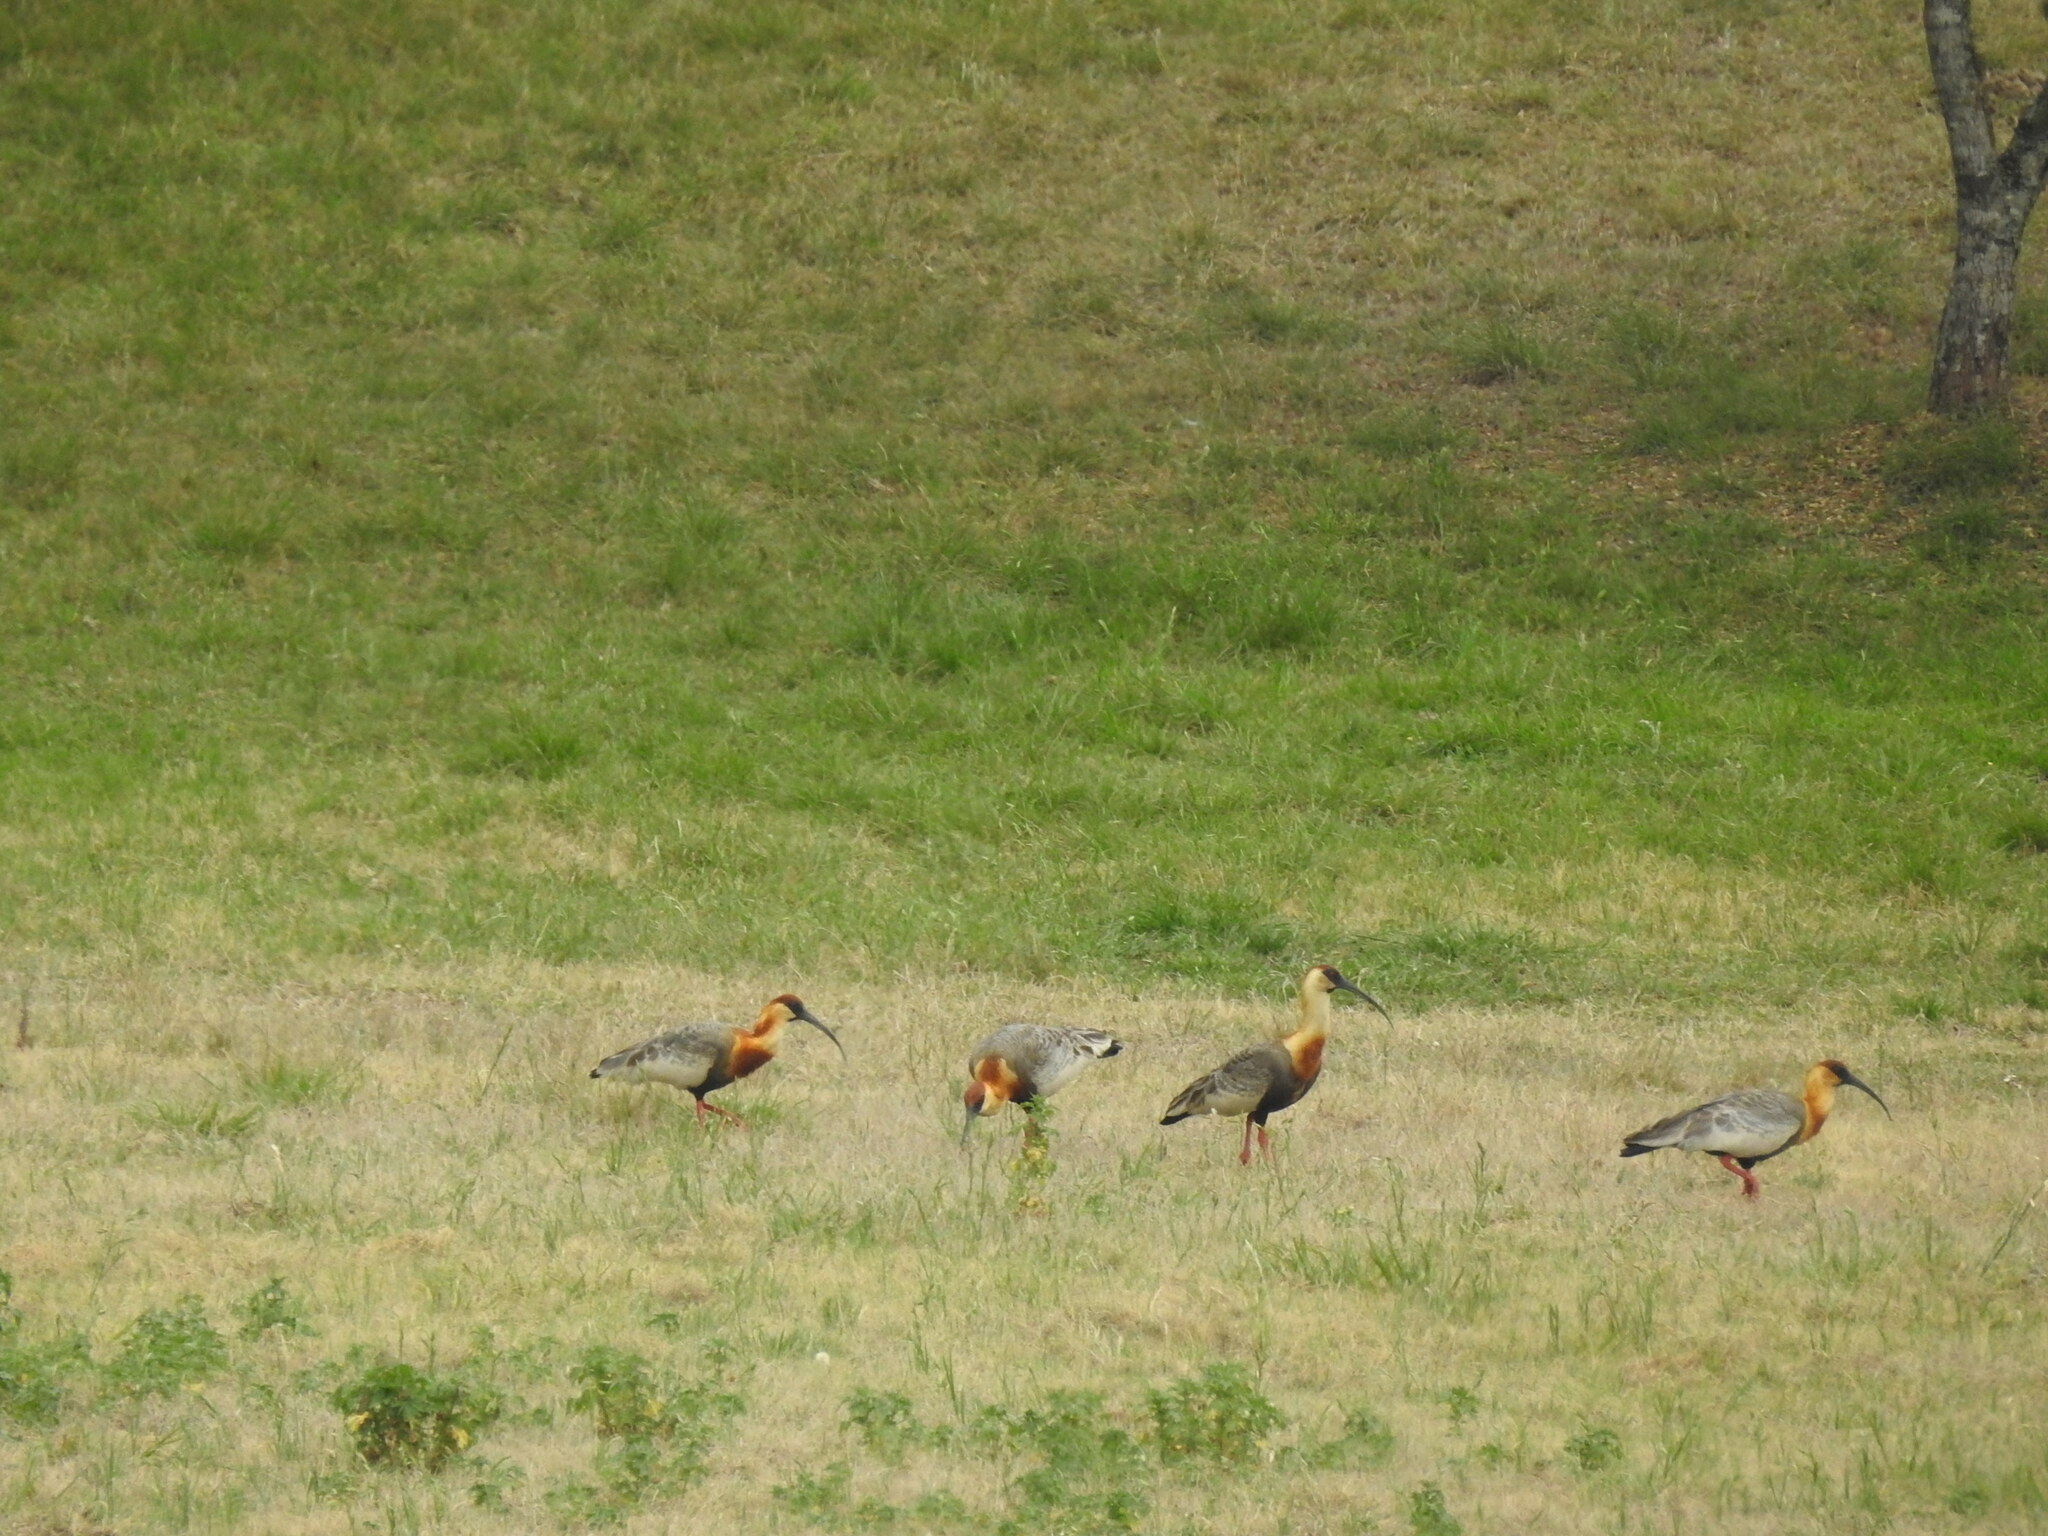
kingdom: Animalia
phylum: Chordata
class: Aves
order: Pelecaniformes
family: Threskiornithidae
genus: Theristicus
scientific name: Theristicus caudatus
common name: Buff-necked ibis
